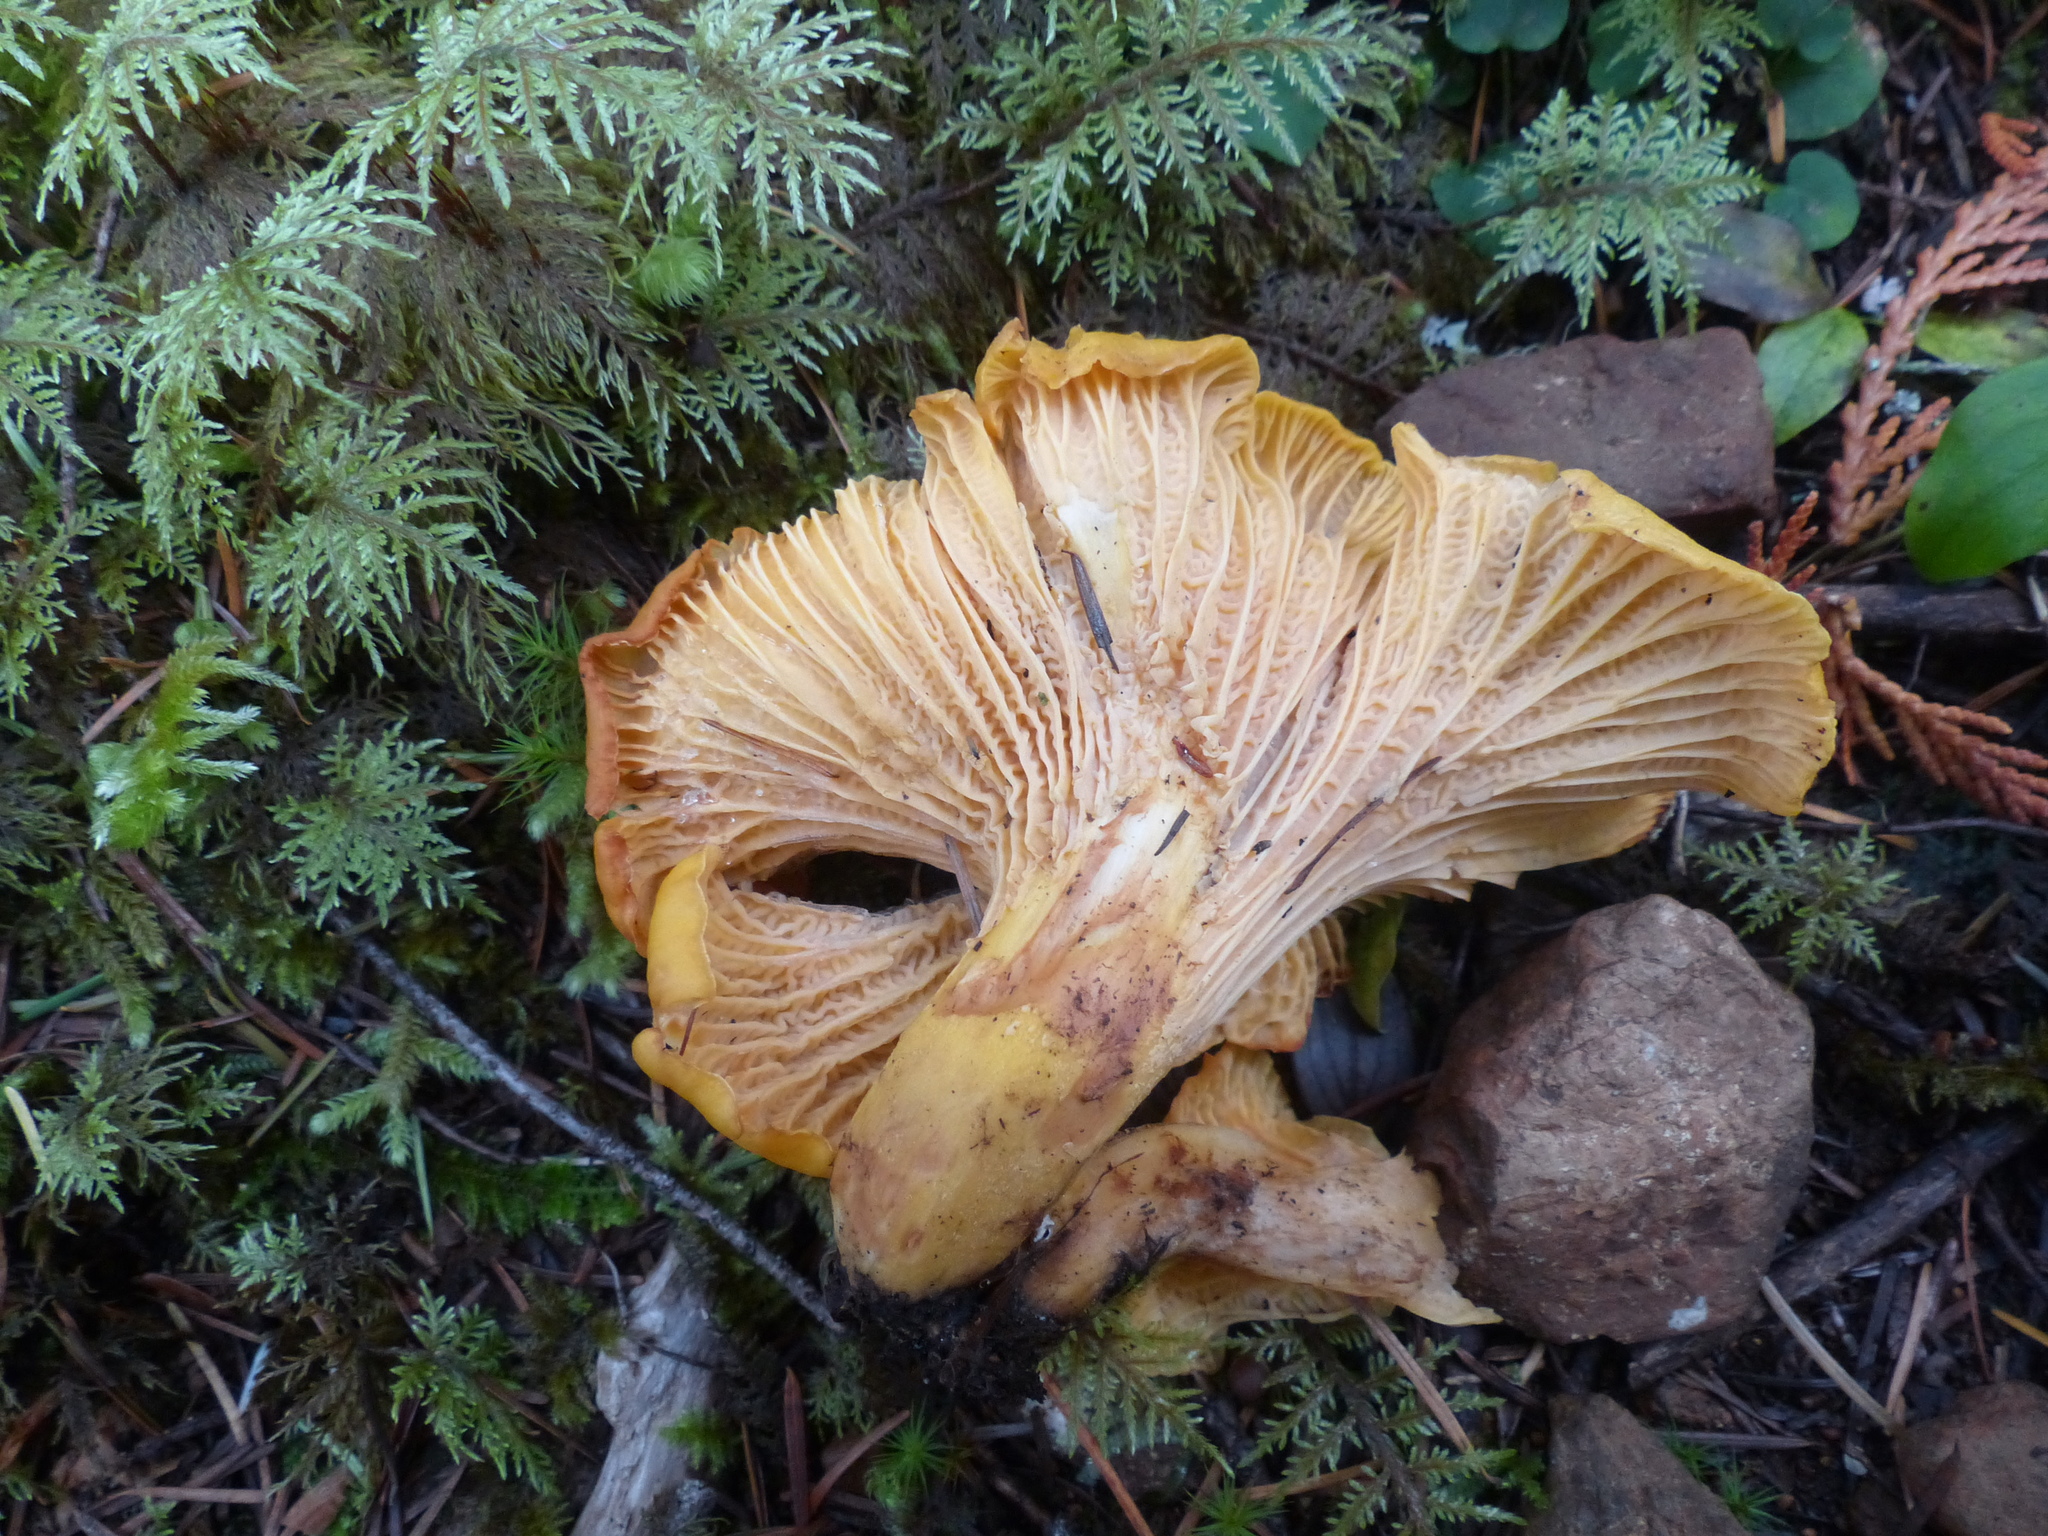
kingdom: Fungi
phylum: Basidiomycota
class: Agaricomycetes
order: Cantharellales
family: Hydnaceae
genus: Cantharellus
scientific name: Cantharellus formosus
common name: Pacific golden chanterelle
